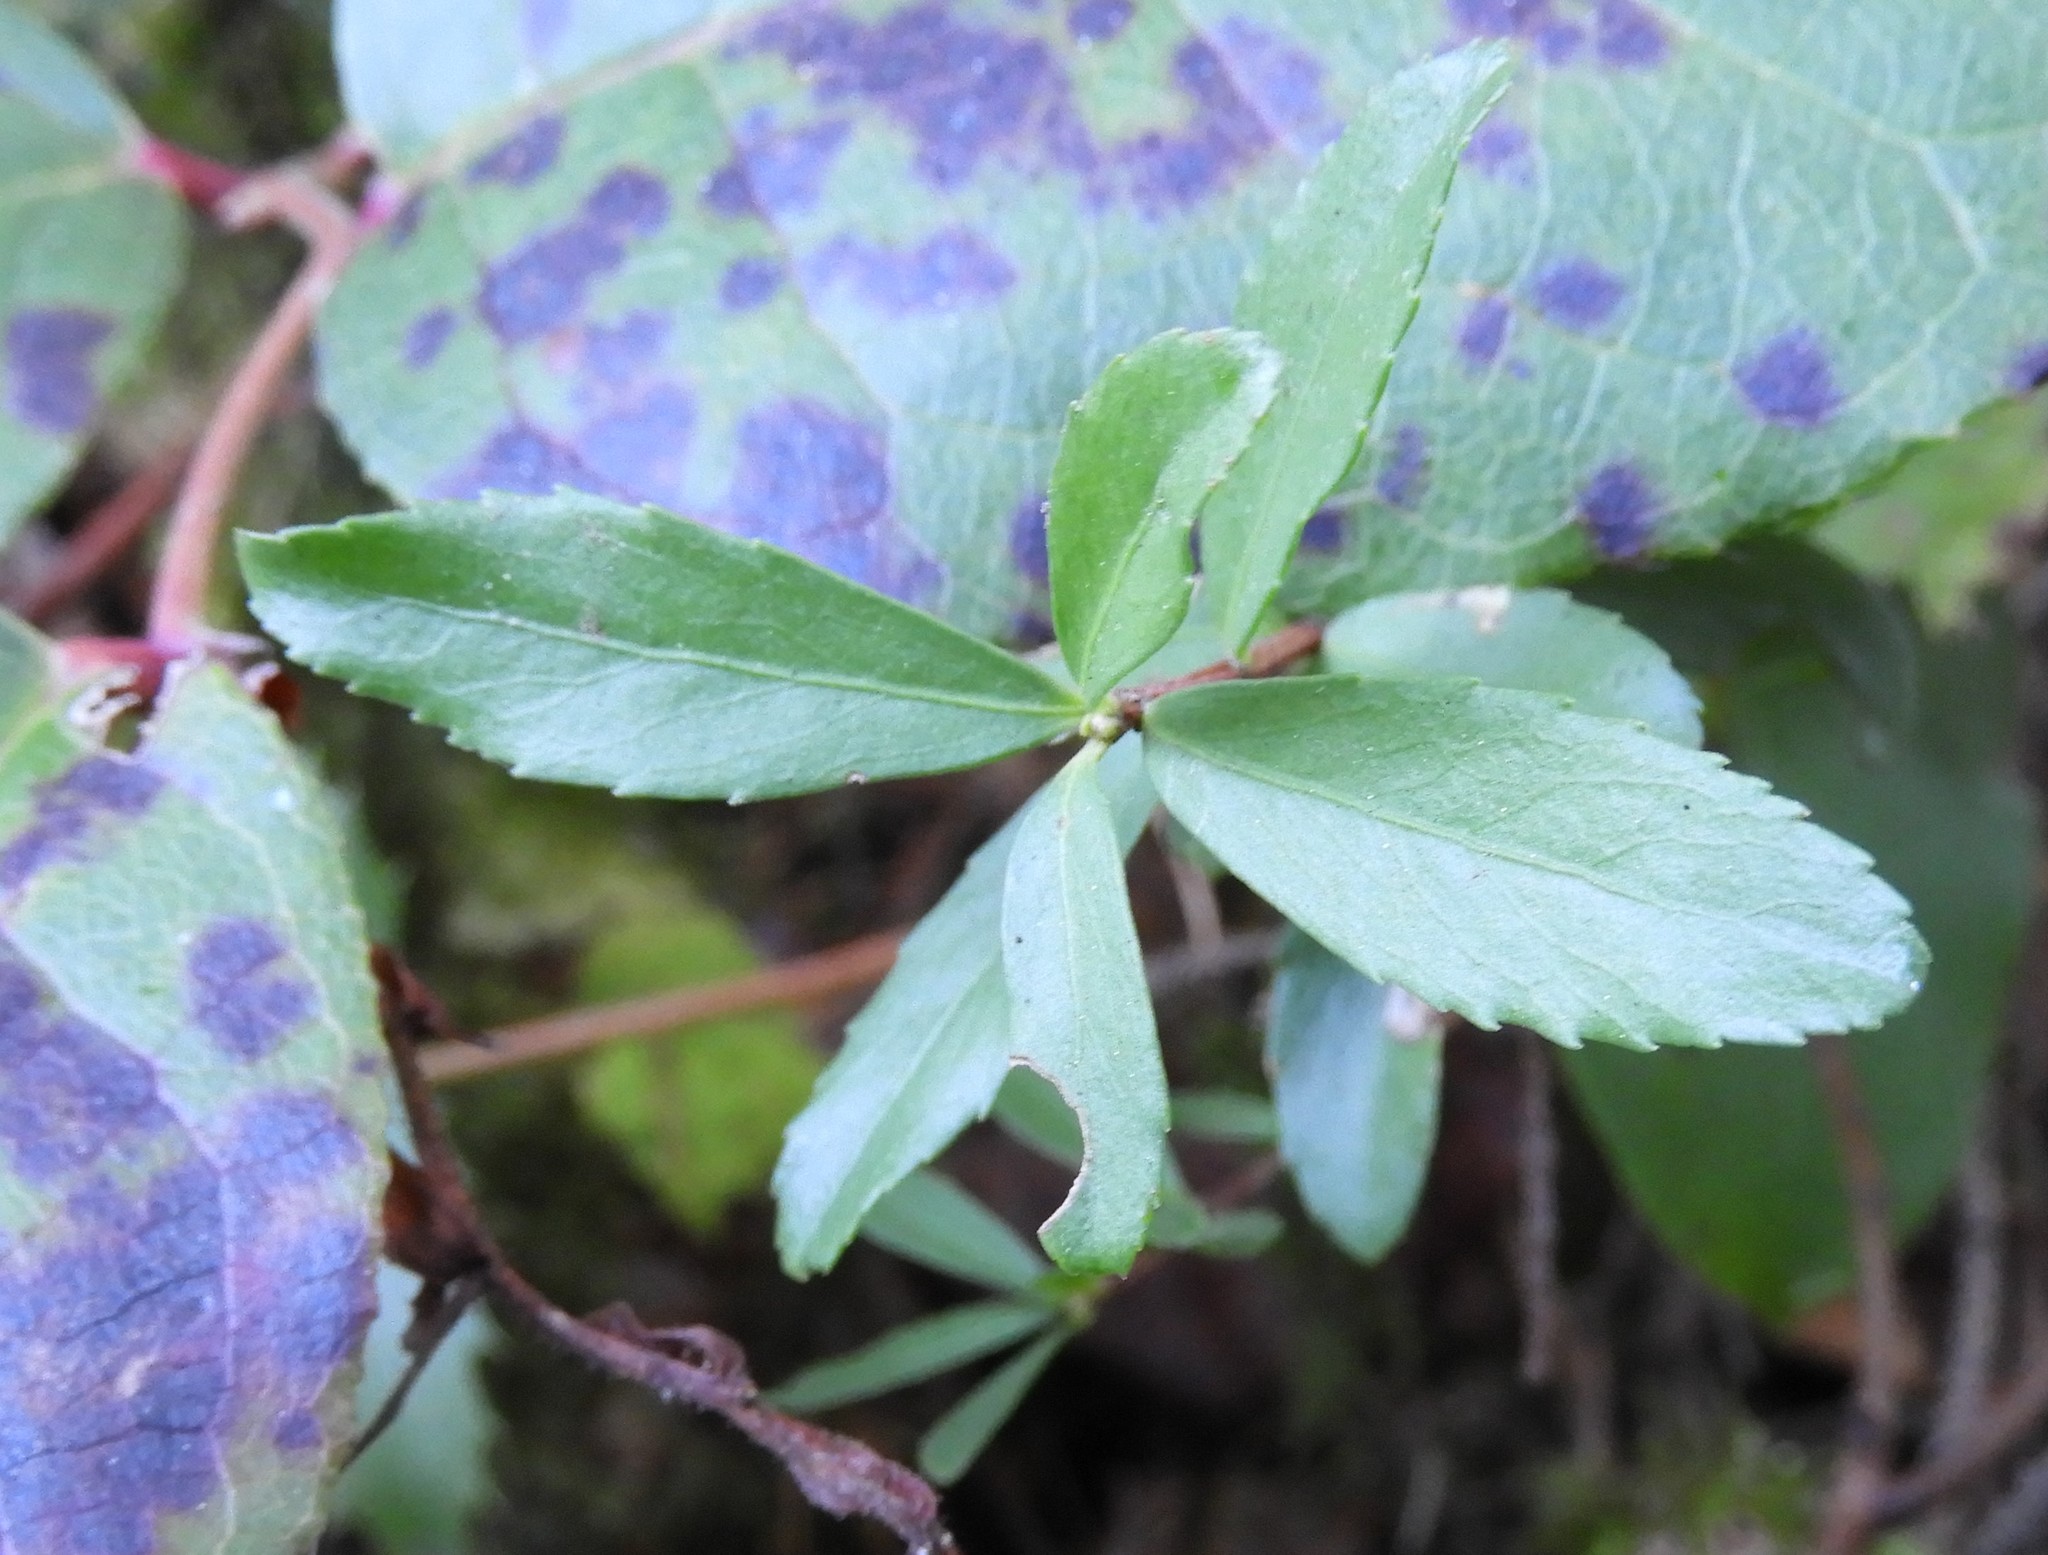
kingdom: Plantae
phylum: Tracheophyta
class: Magnoliopsida
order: Ericales
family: Ericaceae
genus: Chimaphila
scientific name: Chimaphila umbellata
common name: Pipsissewa
